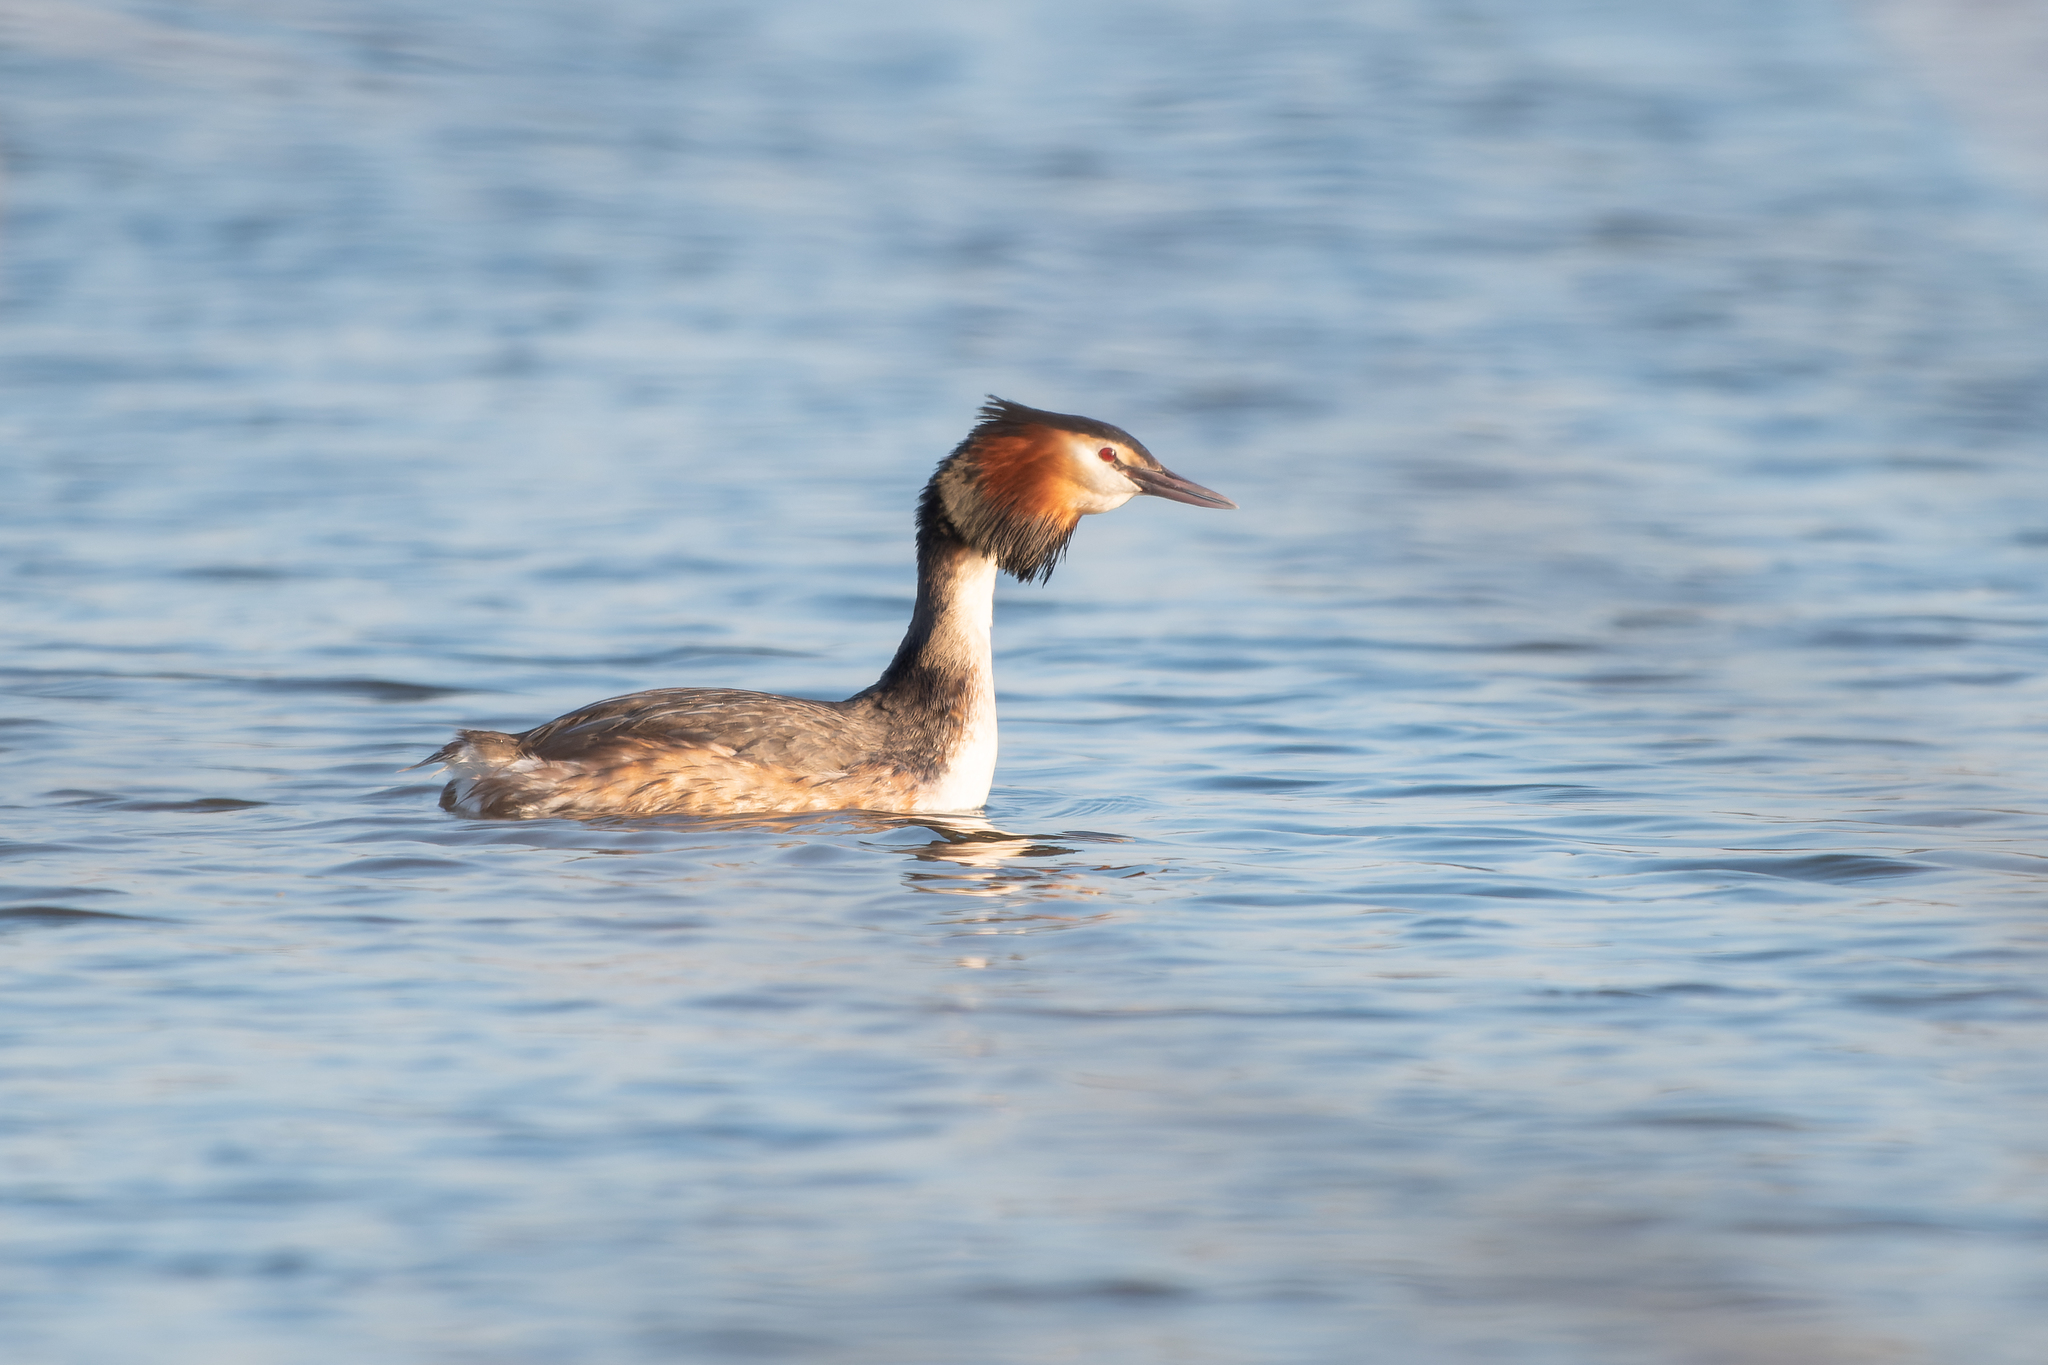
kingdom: Animalia
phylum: Chordata
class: Aves
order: Podicipediformes
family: Podicipedidae
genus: Podiceps
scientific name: Podiceps cristatus
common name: Great crested grebe
